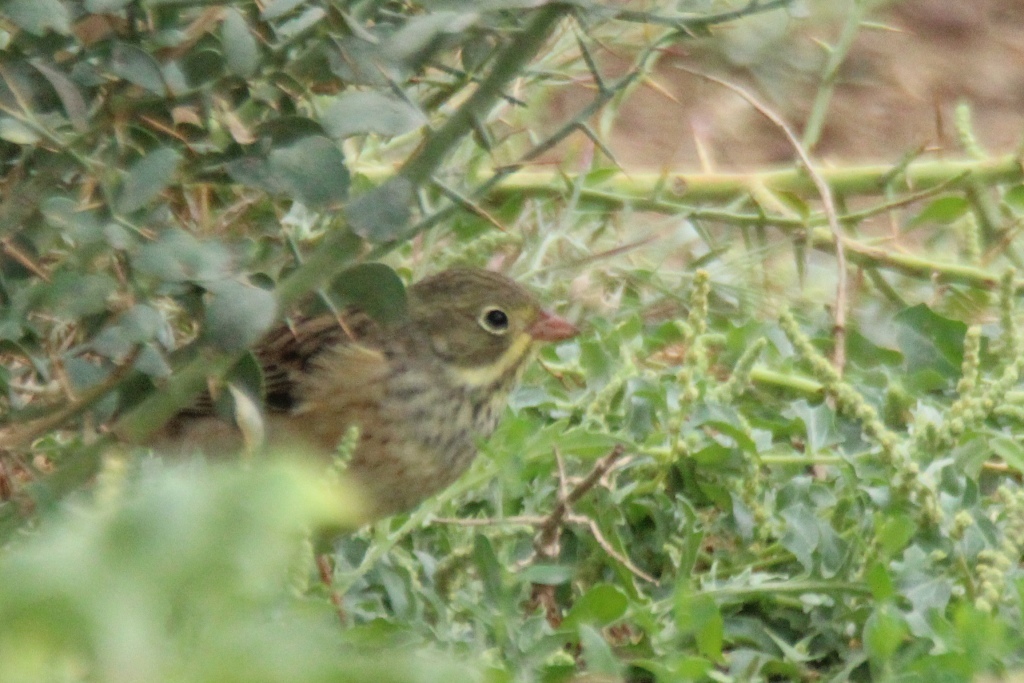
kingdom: Animalia
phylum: Chordata
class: Aves
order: Passeriformes
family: Emberizidae
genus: Emberiza
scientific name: Emberiza hortulana
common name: Ortolan bunting
